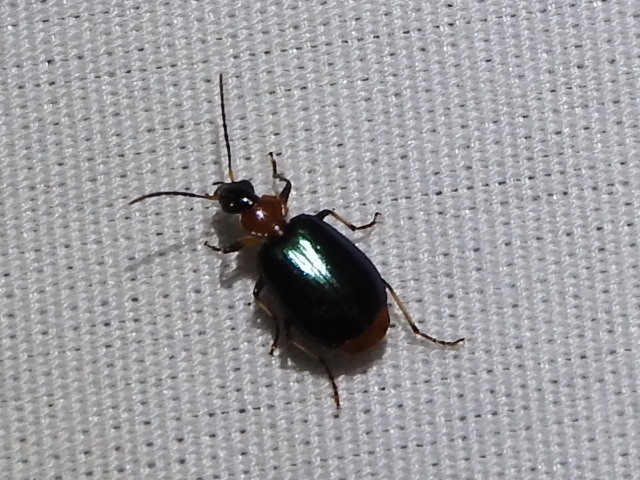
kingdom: Animalia
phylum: Arthropoda
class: Insecta
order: Coleoptera
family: Carabidae
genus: Lebia
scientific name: Lebia viridipennis
